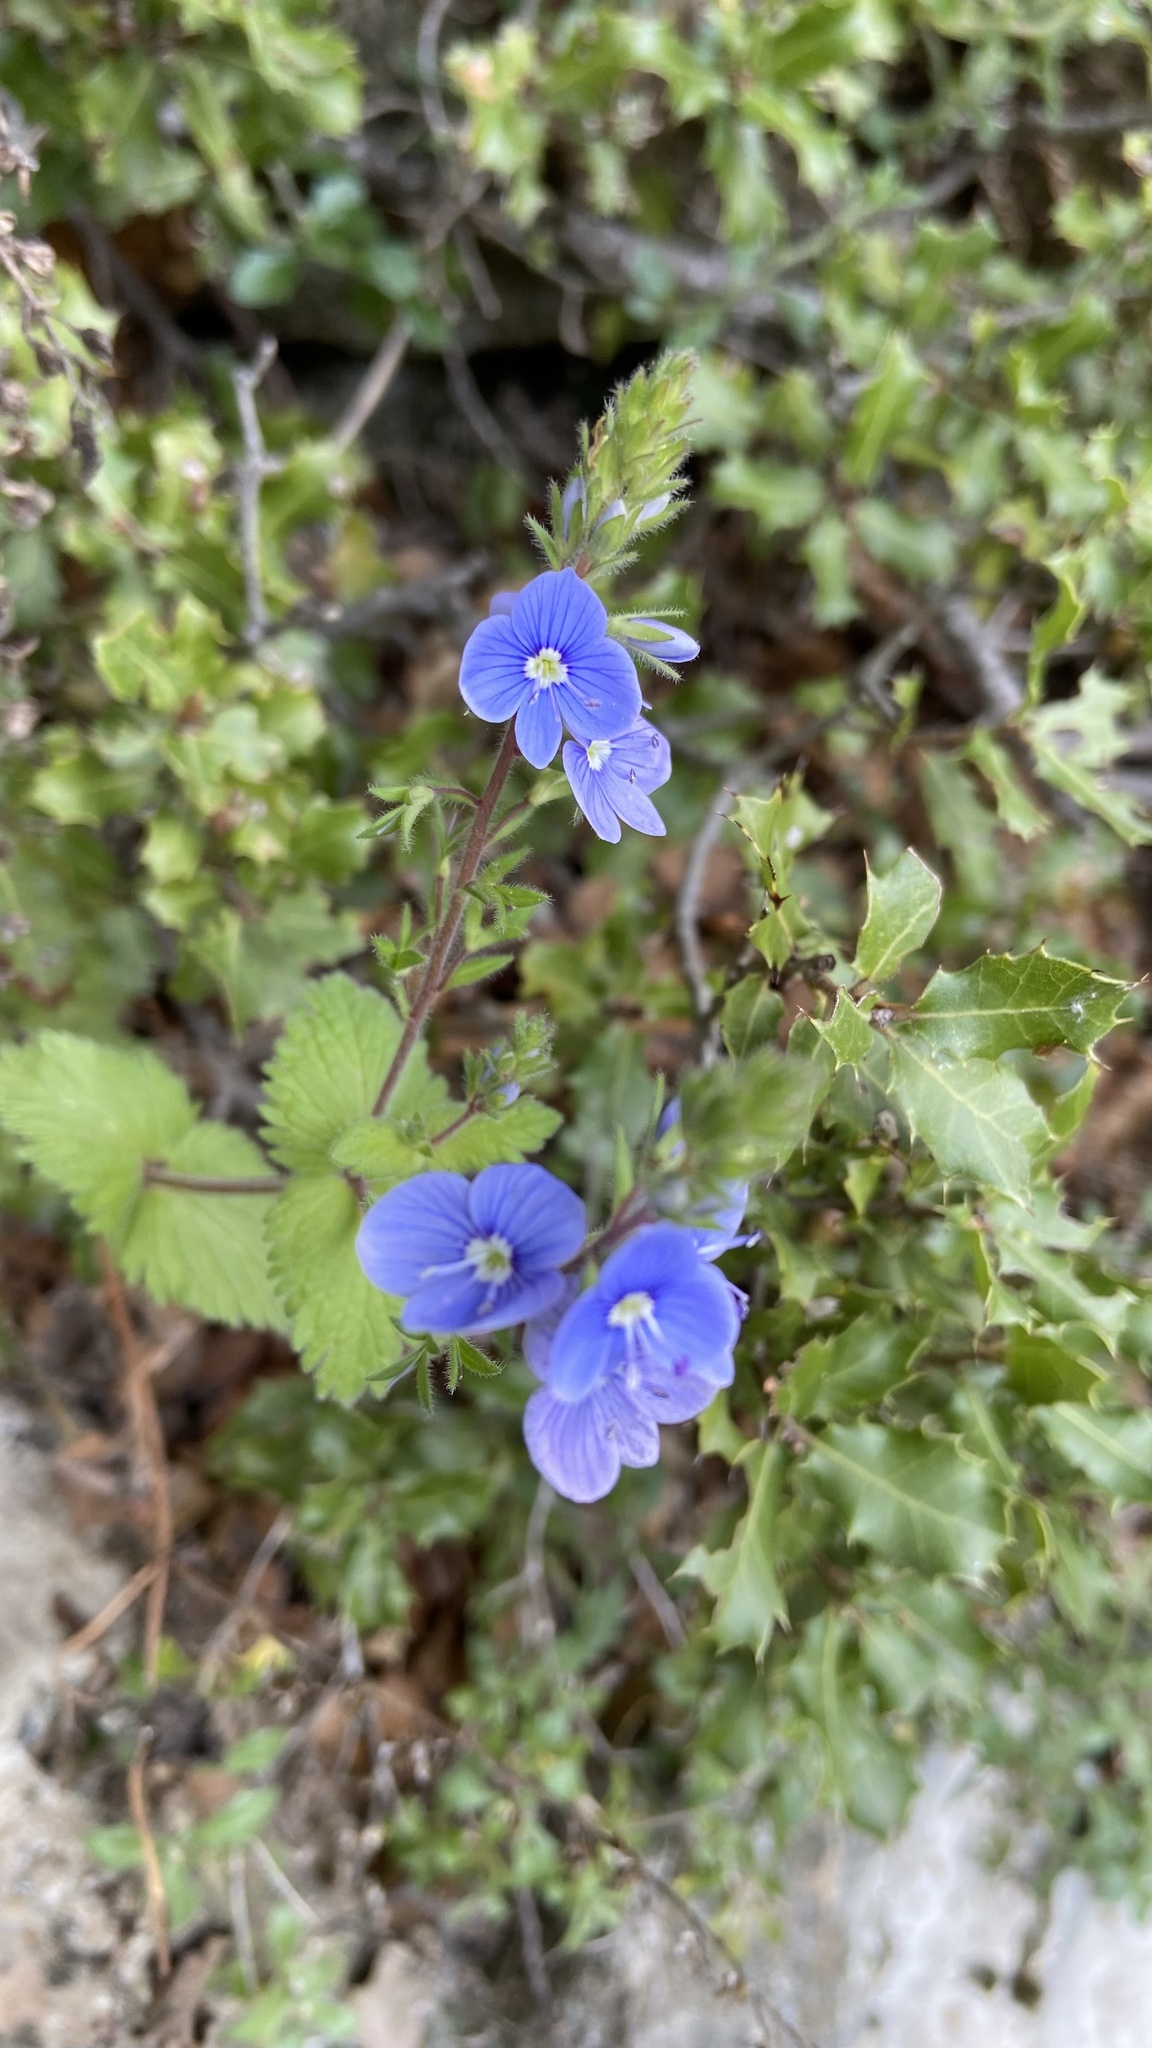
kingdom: Plantae
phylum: Tracheophyta
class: Magnoliopsida
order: Lamiales
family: Plantaginaceae
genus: Veronica
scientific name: Veronica chamaedrys
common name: Germander speedwell
